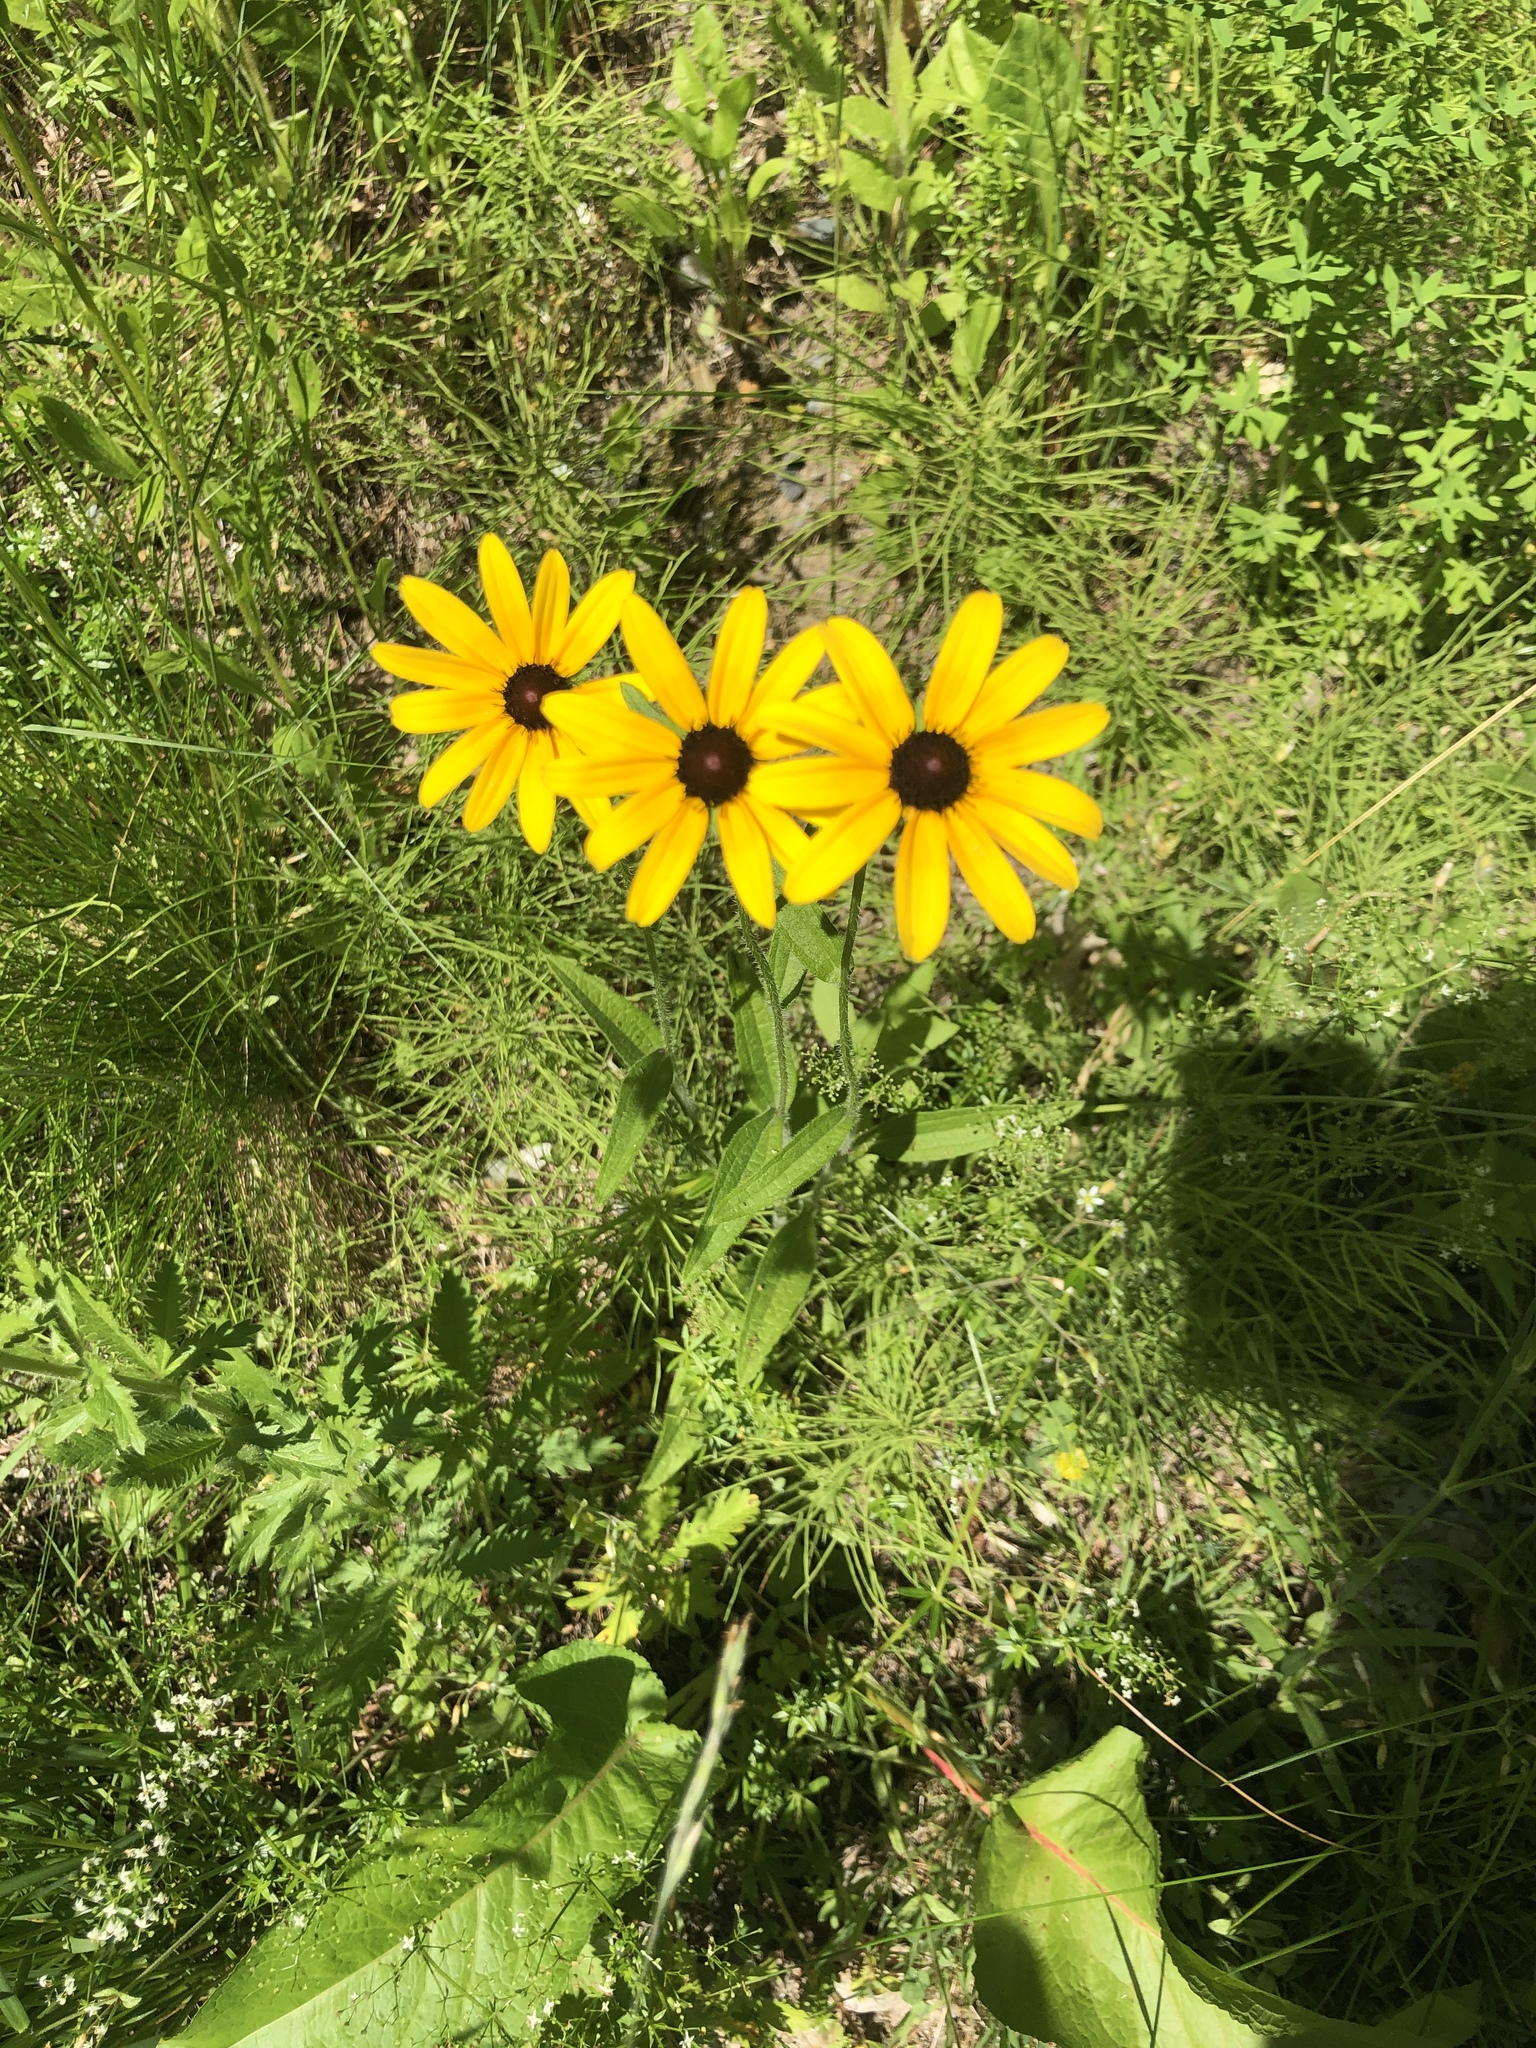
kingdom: Plantae
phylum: Tracheophyta
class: Magnoliopsida
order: Asterales
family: Asteraceae
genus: Rudbeckia
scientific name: Rudbeckia hirta
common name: Black-eyed-susan
